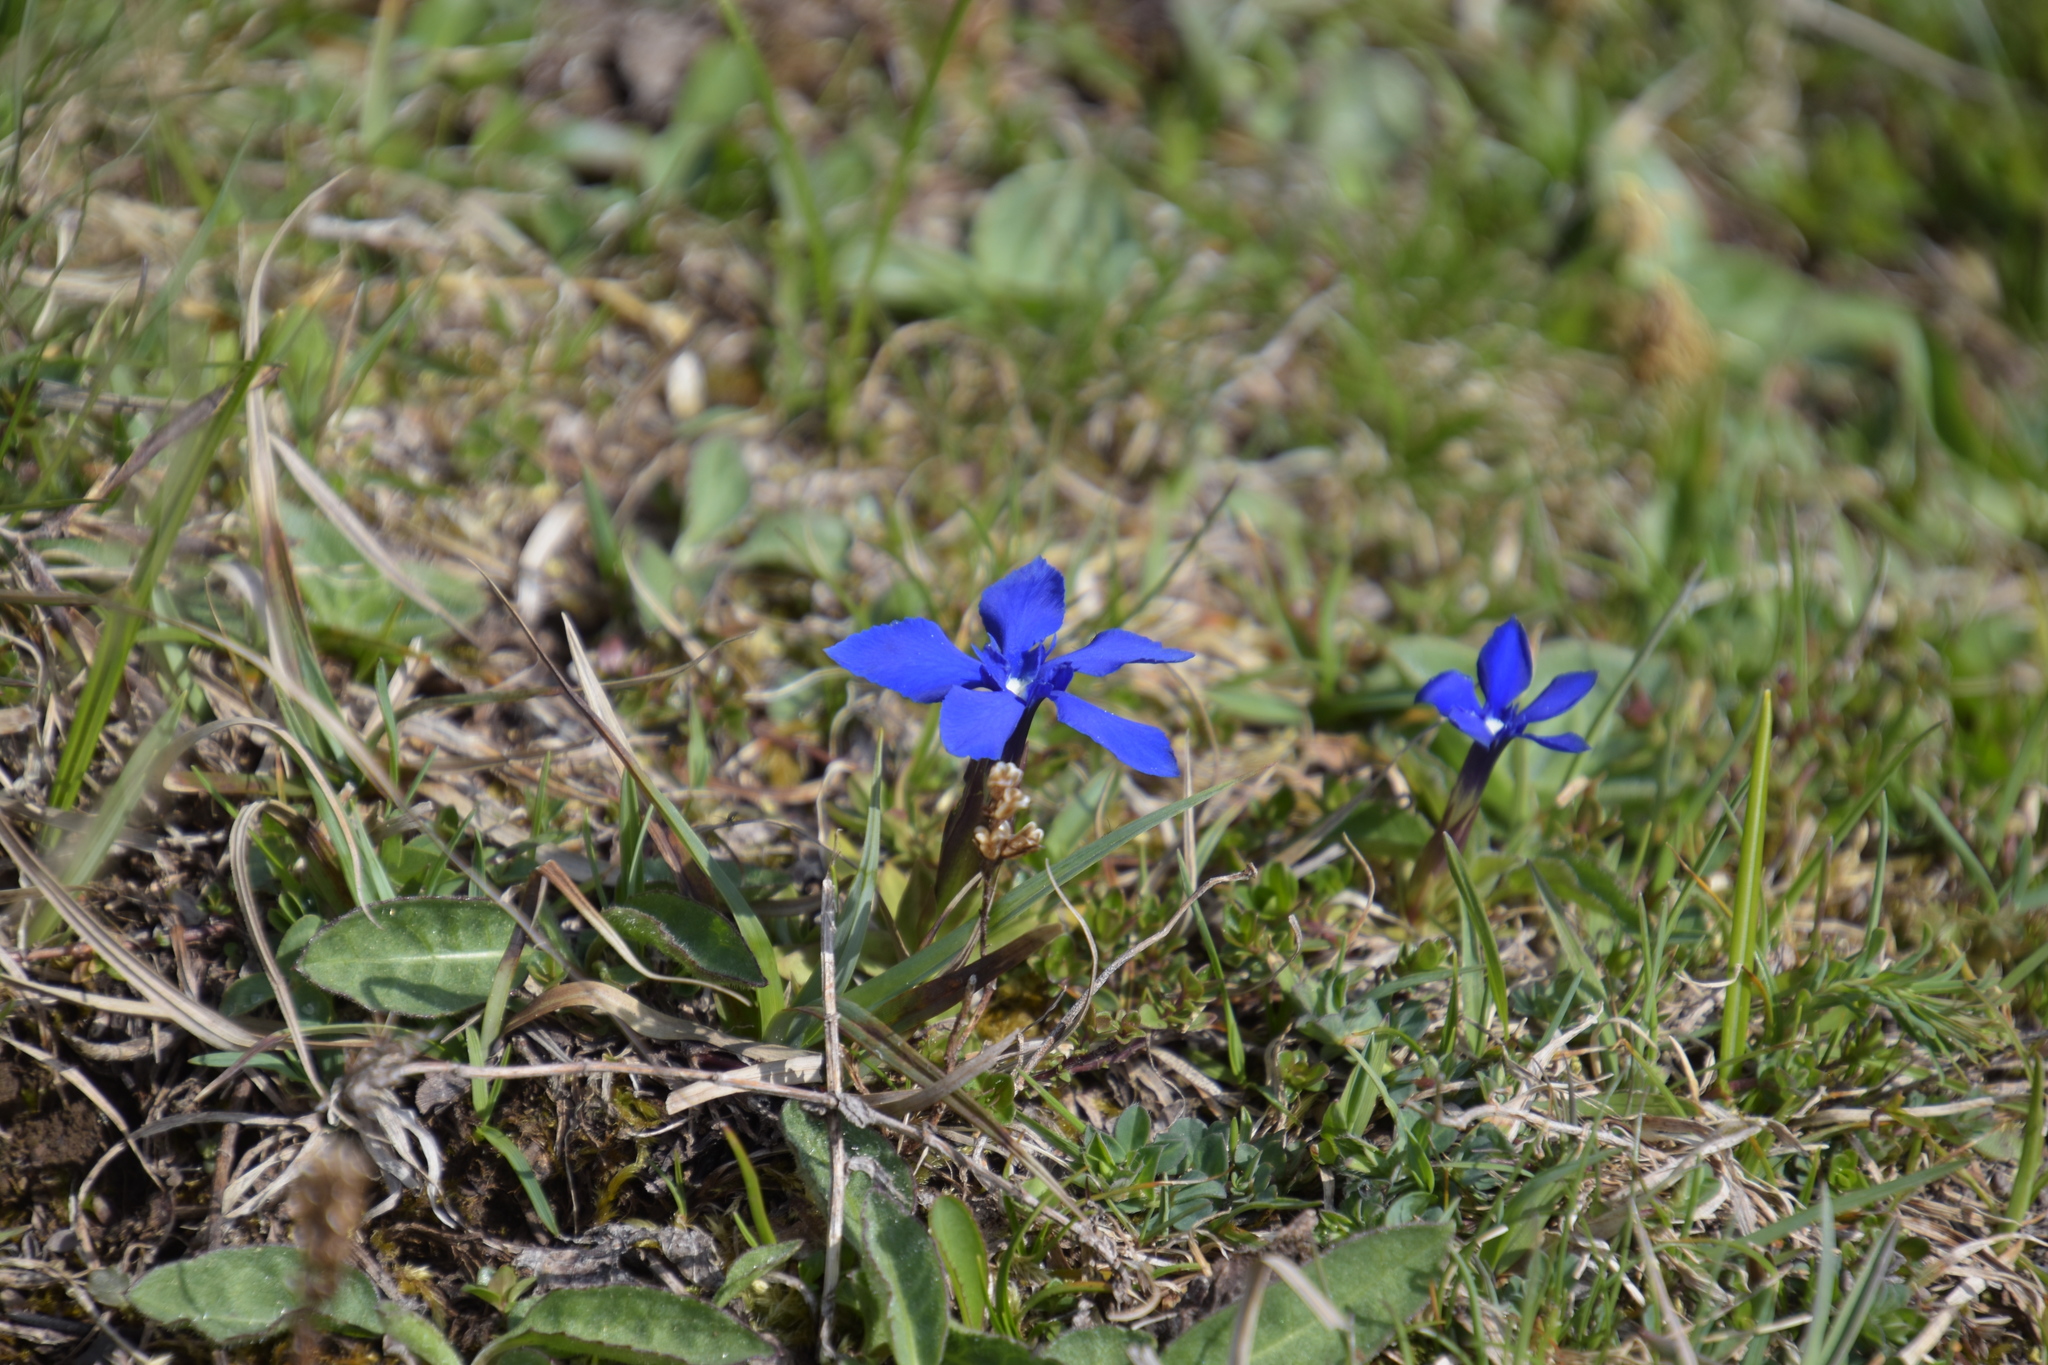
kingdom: Plantae
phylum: Tracheophyta
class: Magnoliopsida
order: Gentianales
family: Gentianaceae
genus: Gentiana
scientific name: Gentiana verna
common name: Spring gentian
